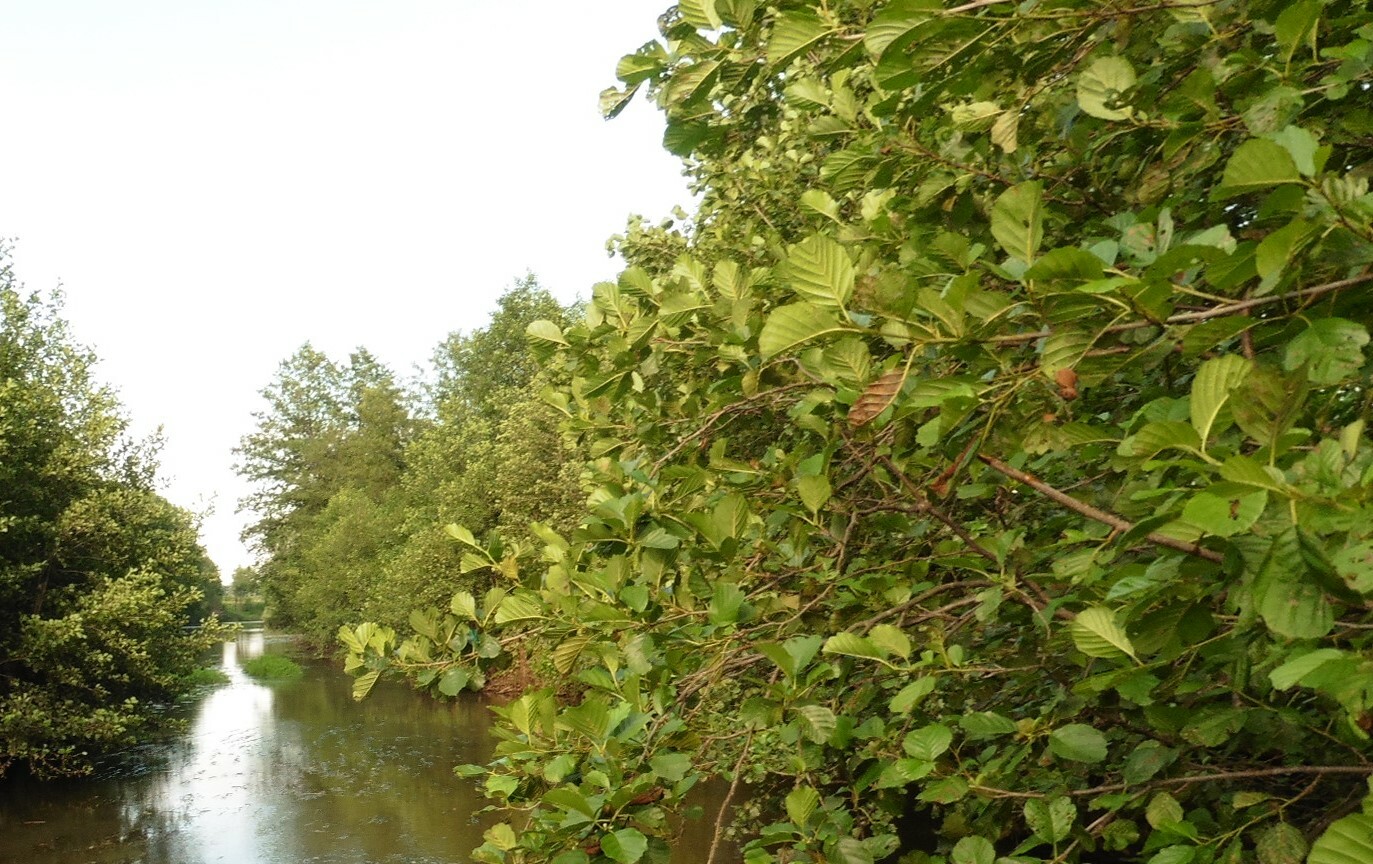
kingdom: Plantae
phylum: Tracheophyta
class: Magnoliopsida
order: Fagales
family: Betulaceae
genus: Alnus
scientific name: Alnus glutinosa
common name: Black alder
